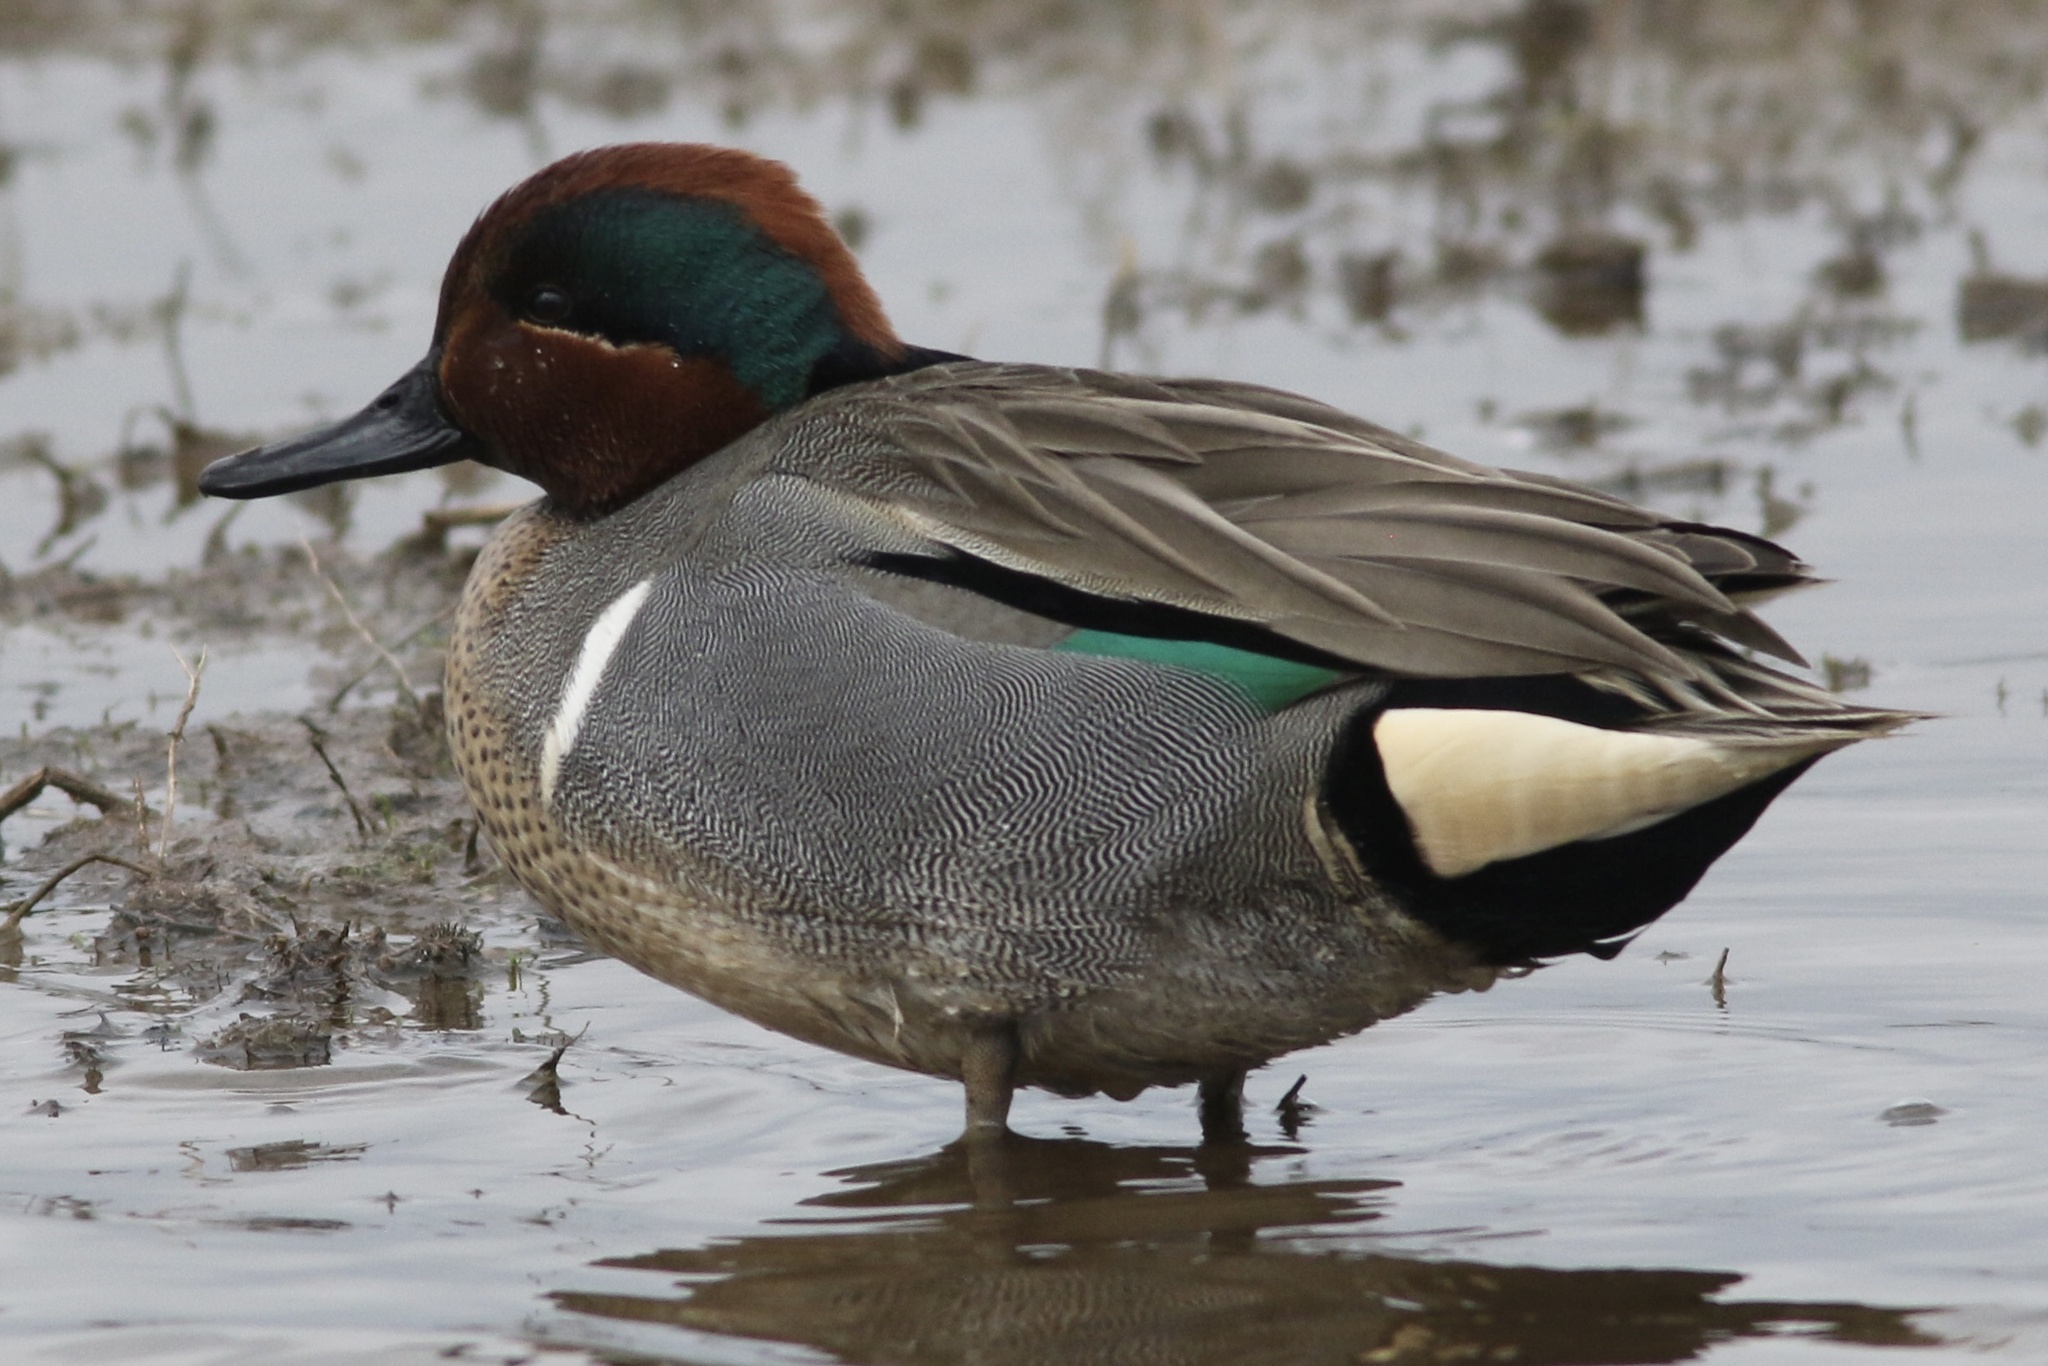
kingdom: Animalia
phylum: Chordata
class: Aves
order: Anseriformes
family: Anatidae
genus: Anas
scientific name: Anas crecca
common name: Eurasian teal
